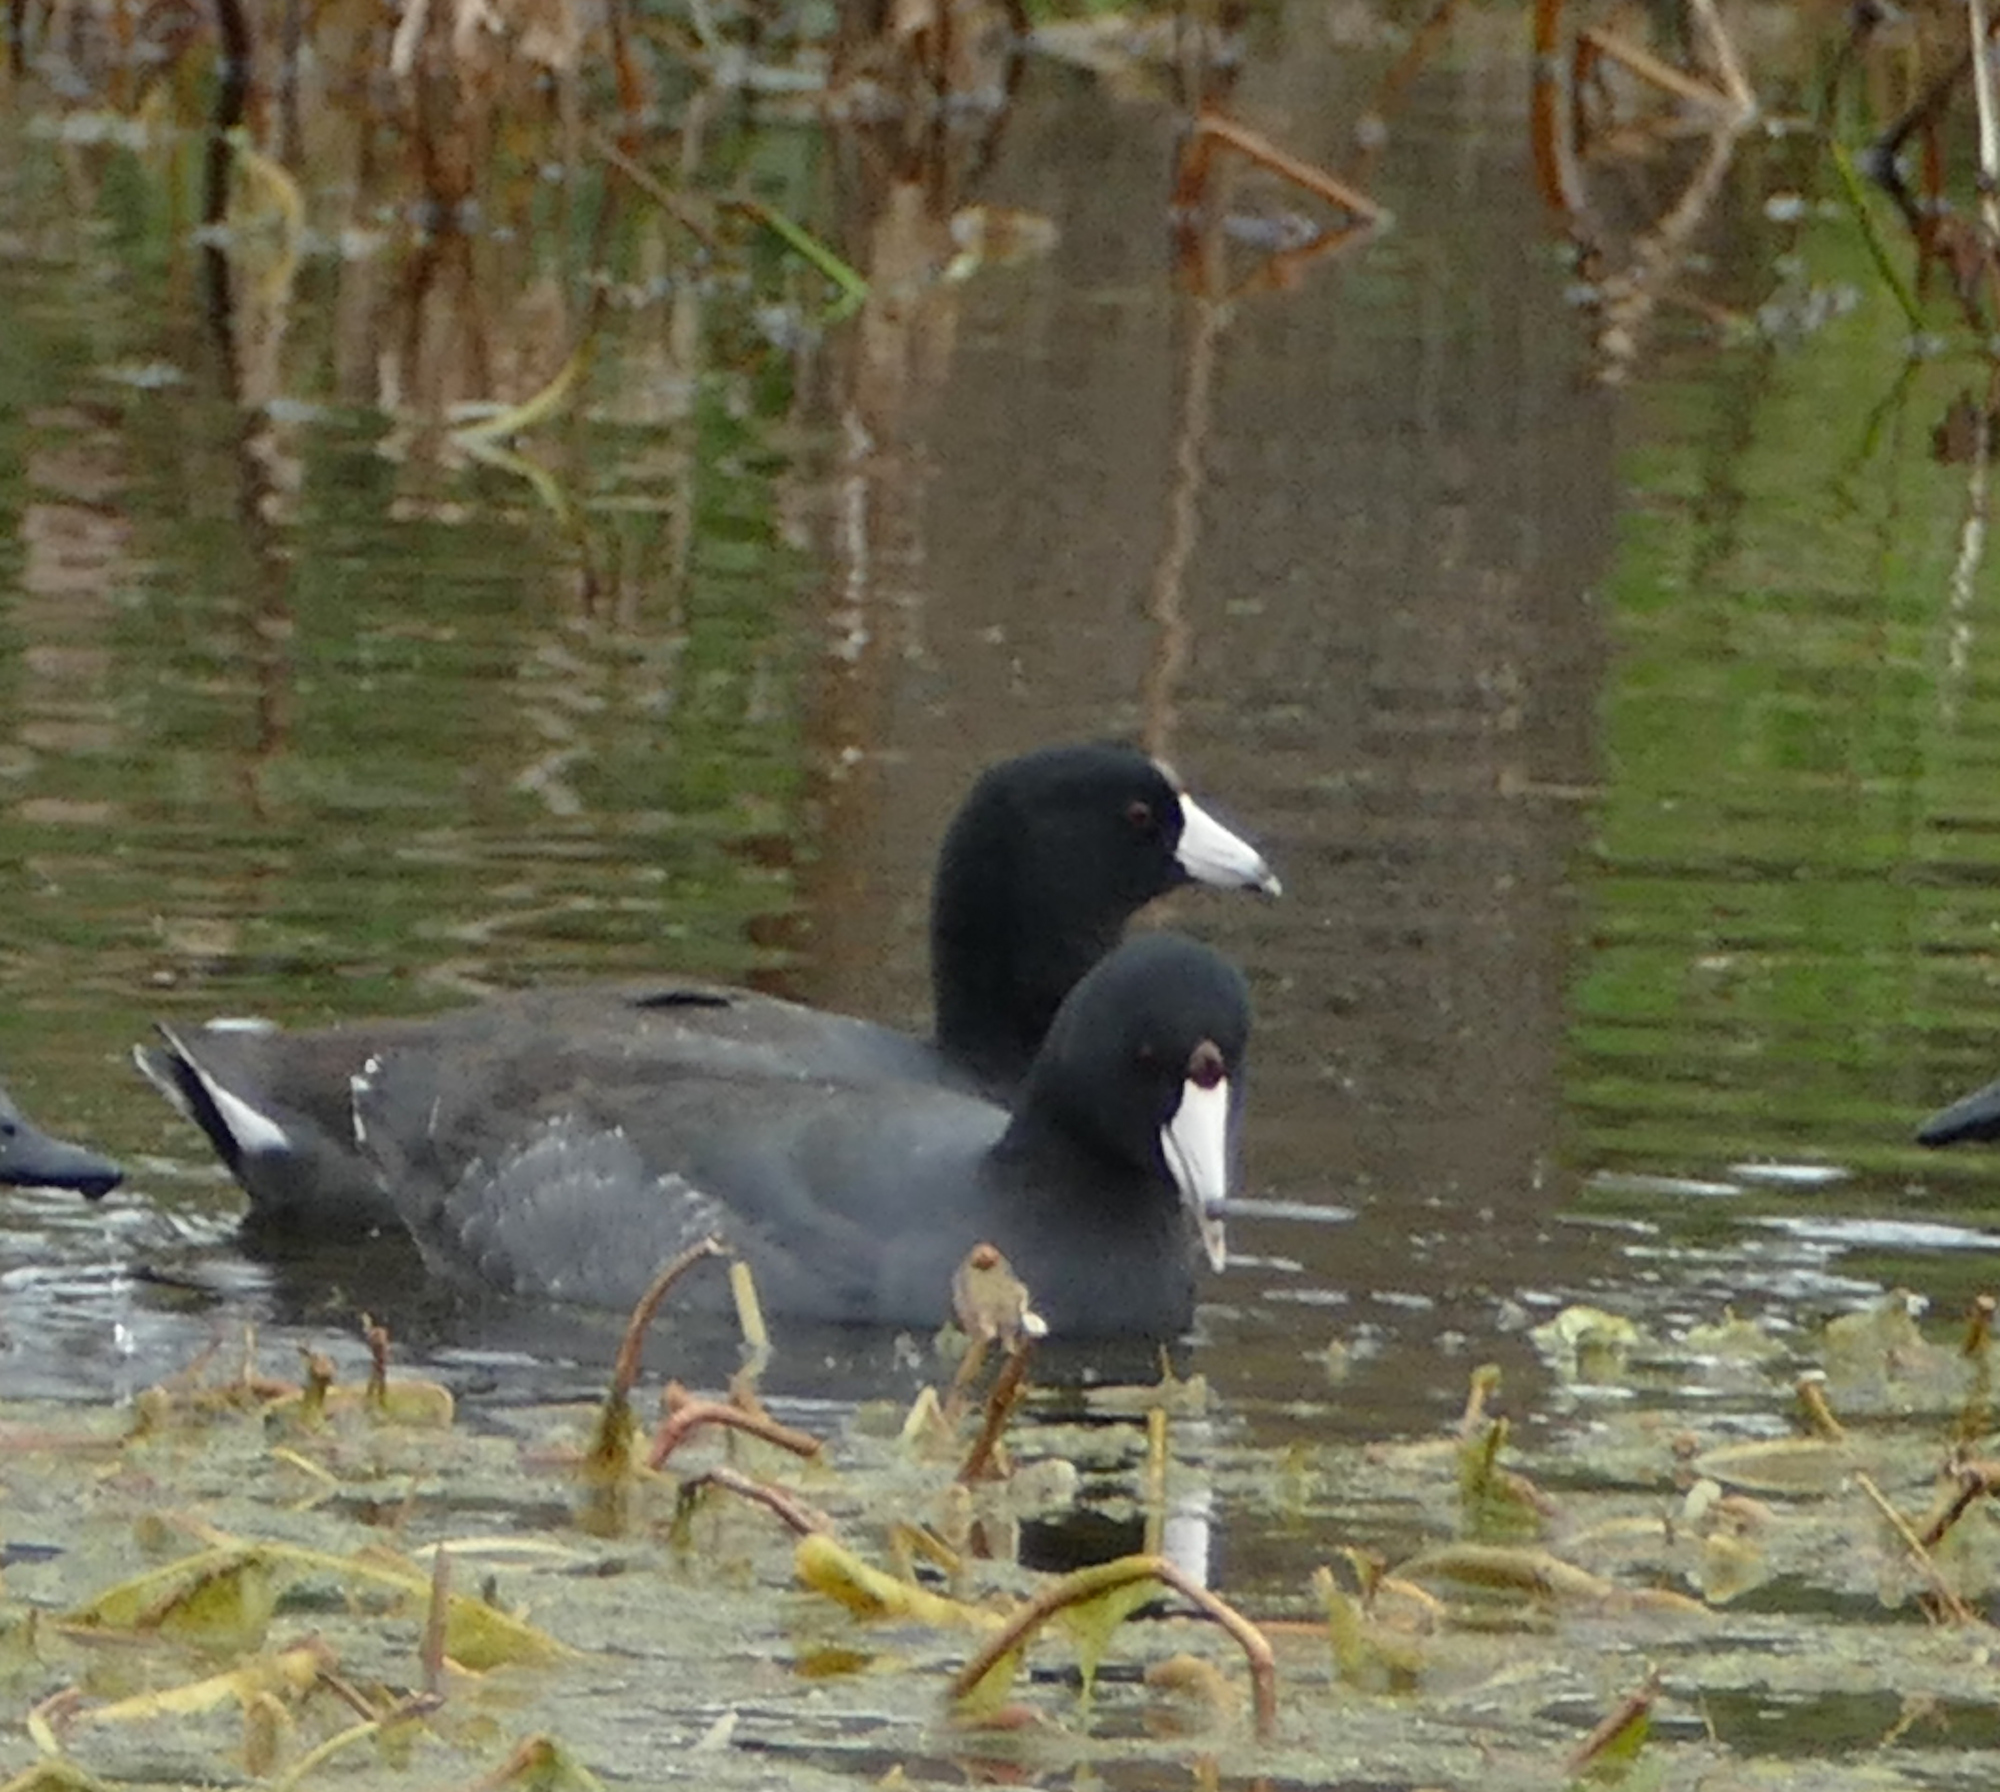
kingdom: Animalia
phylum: Chordata
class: Aves
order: Gruiformes
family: Rallidae
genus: Fulica
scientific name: Fulica americana
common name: American coot
